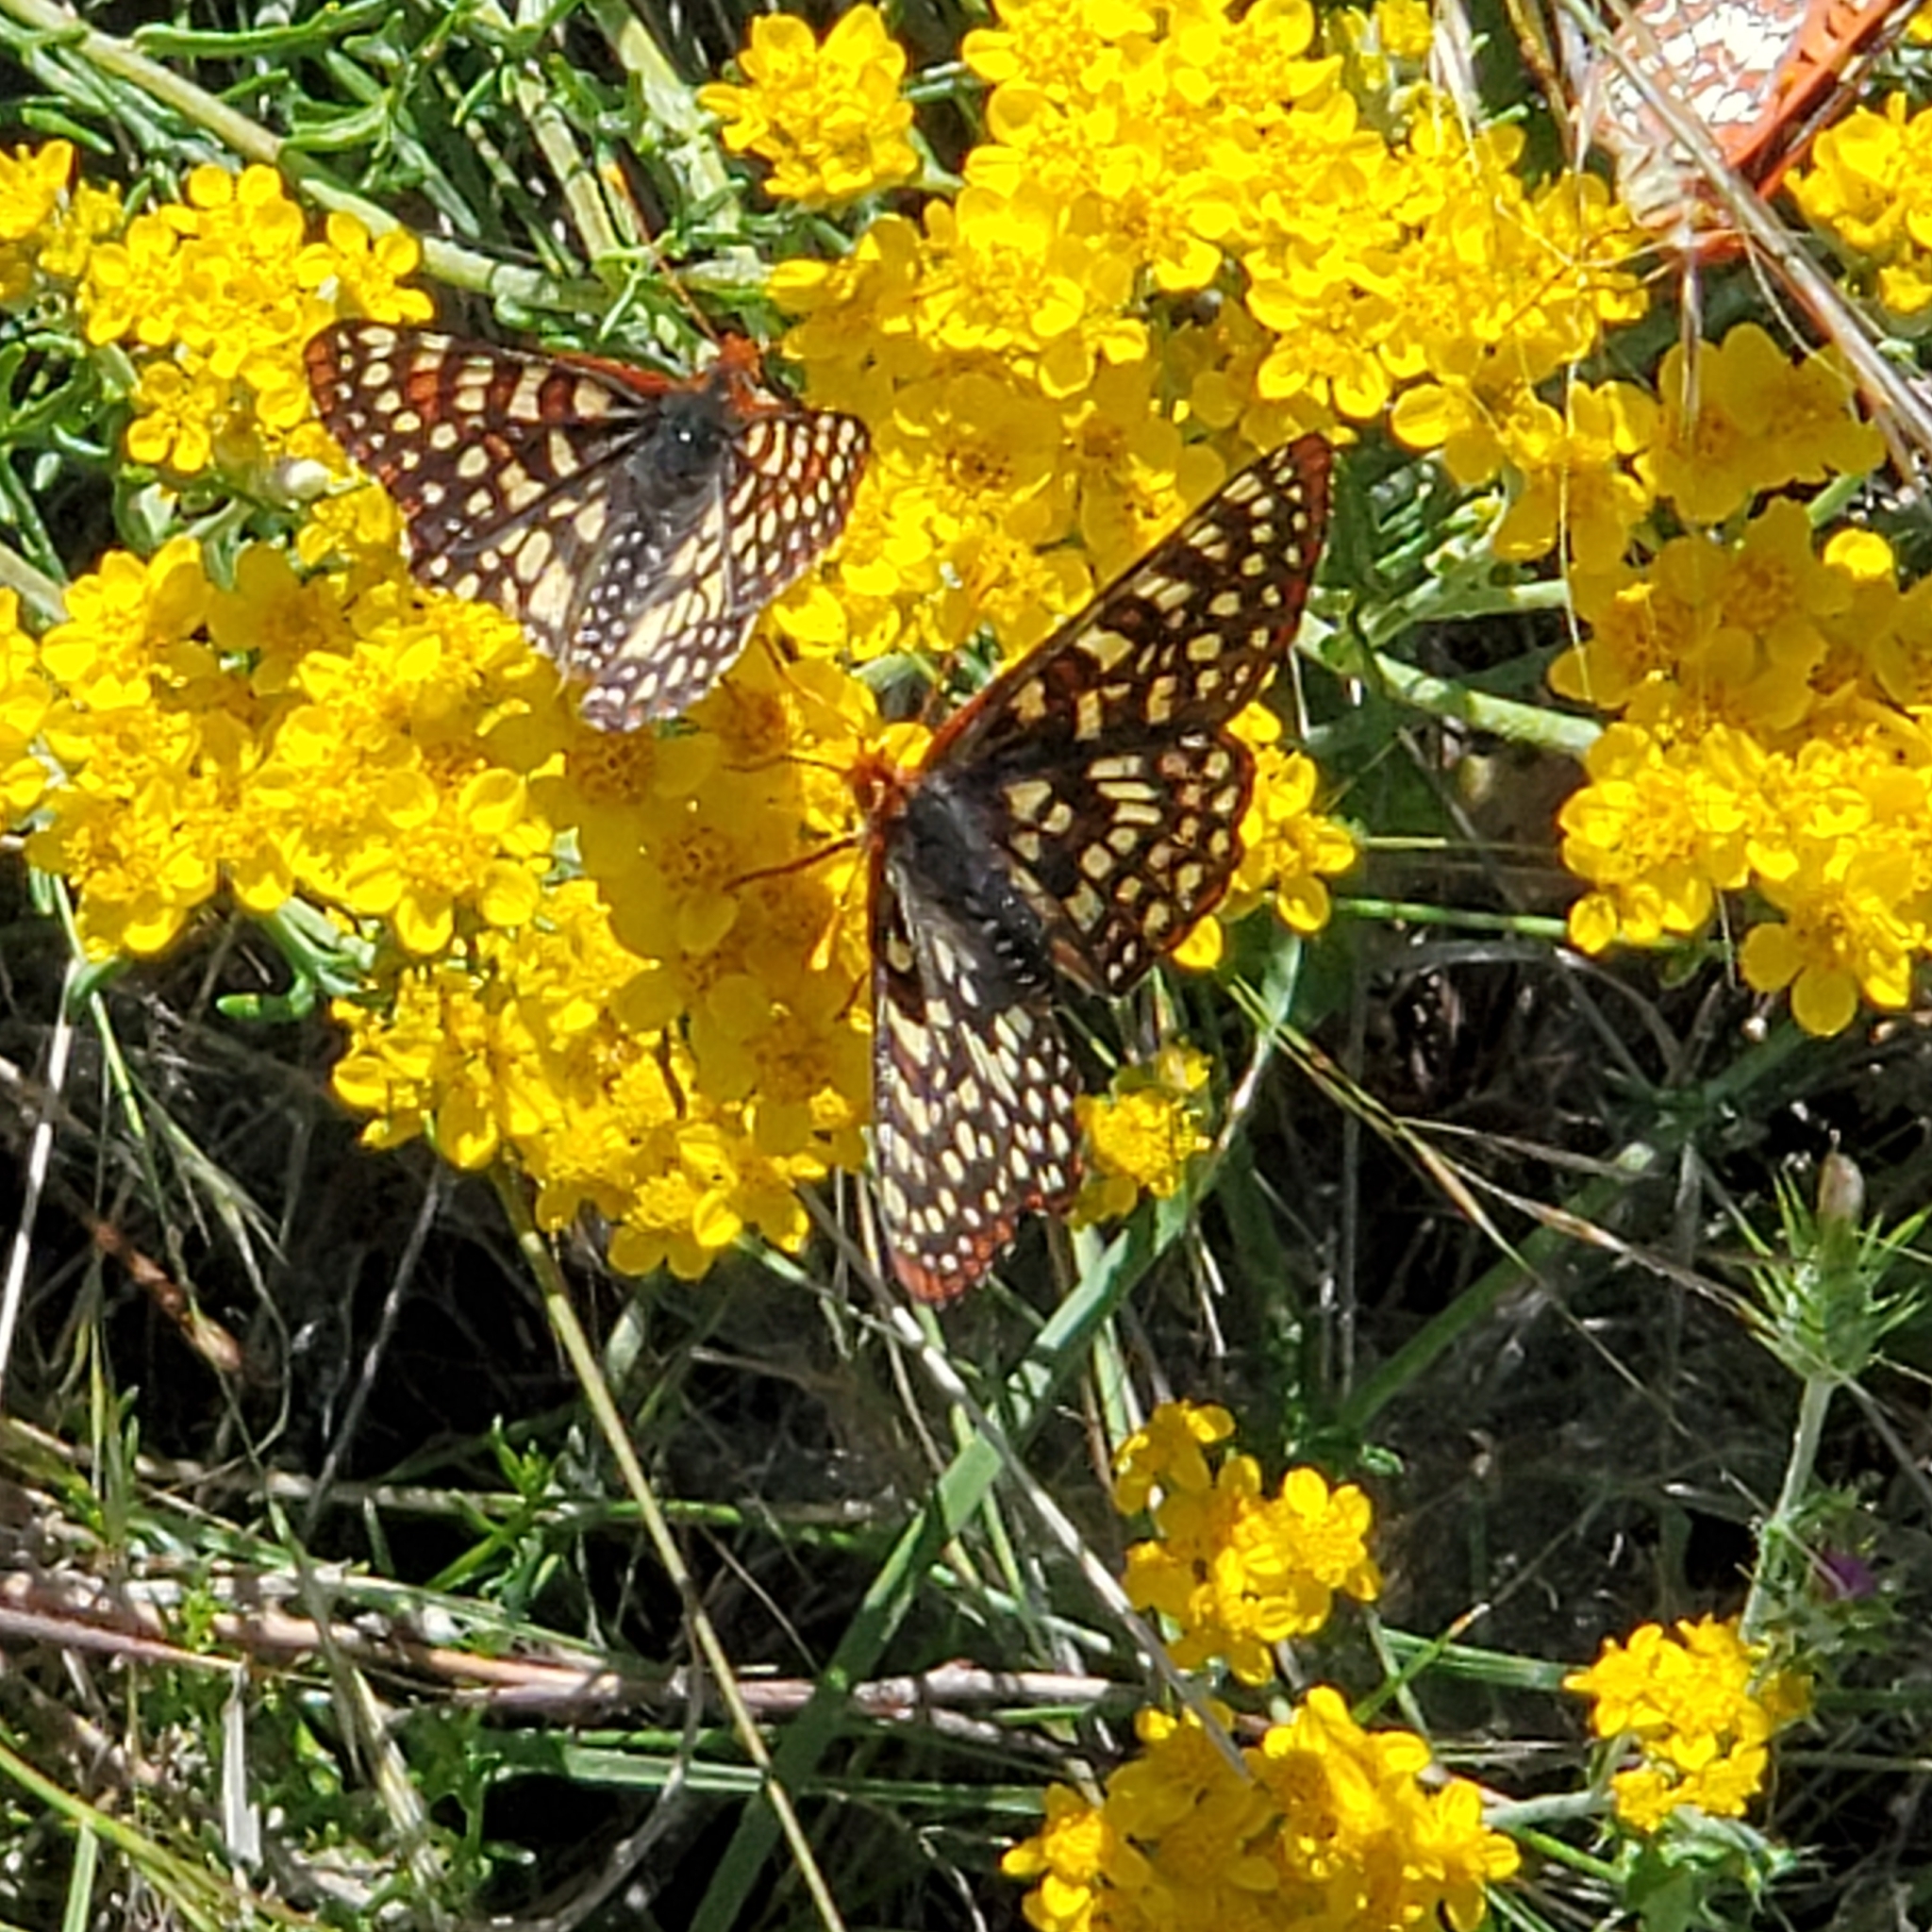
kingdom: Animalia
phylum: Arthropoda
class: Insecta
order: Lepidoptera
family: Nymphalidae
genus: Occidryas
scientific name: Occidryas chalcedona
